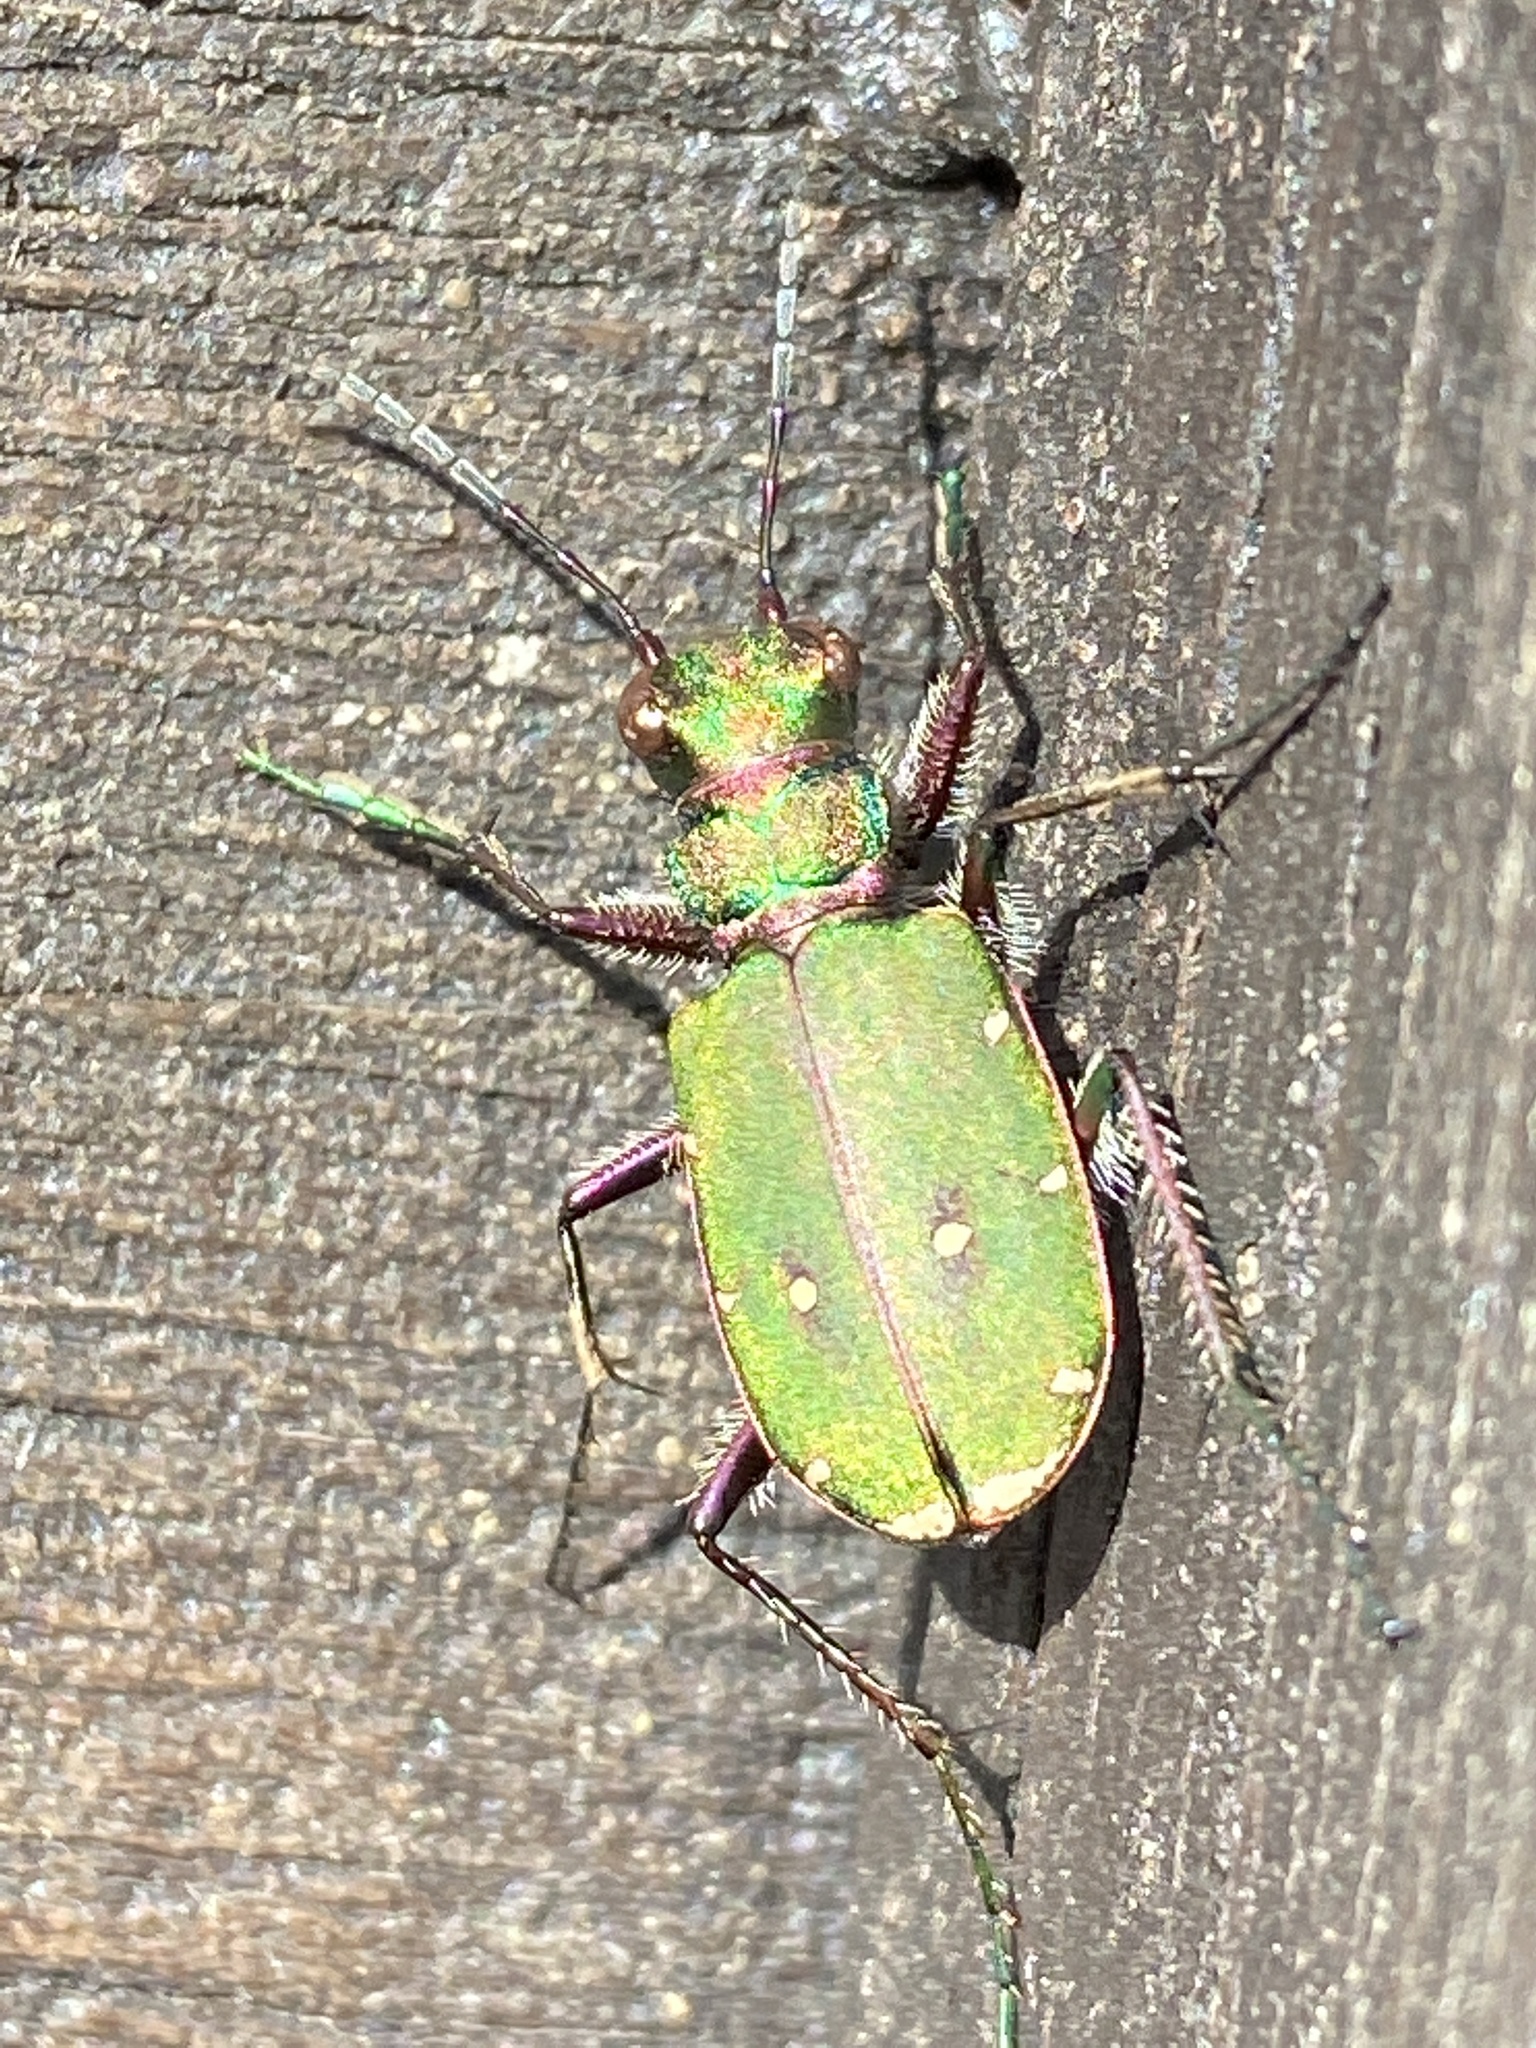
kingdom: Animalia
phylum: Arthropoda
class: Insecta
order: Coleoptera
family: Carabidae
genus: Cicindela
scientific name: Cicindela campestris
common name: Common tiger beetle
